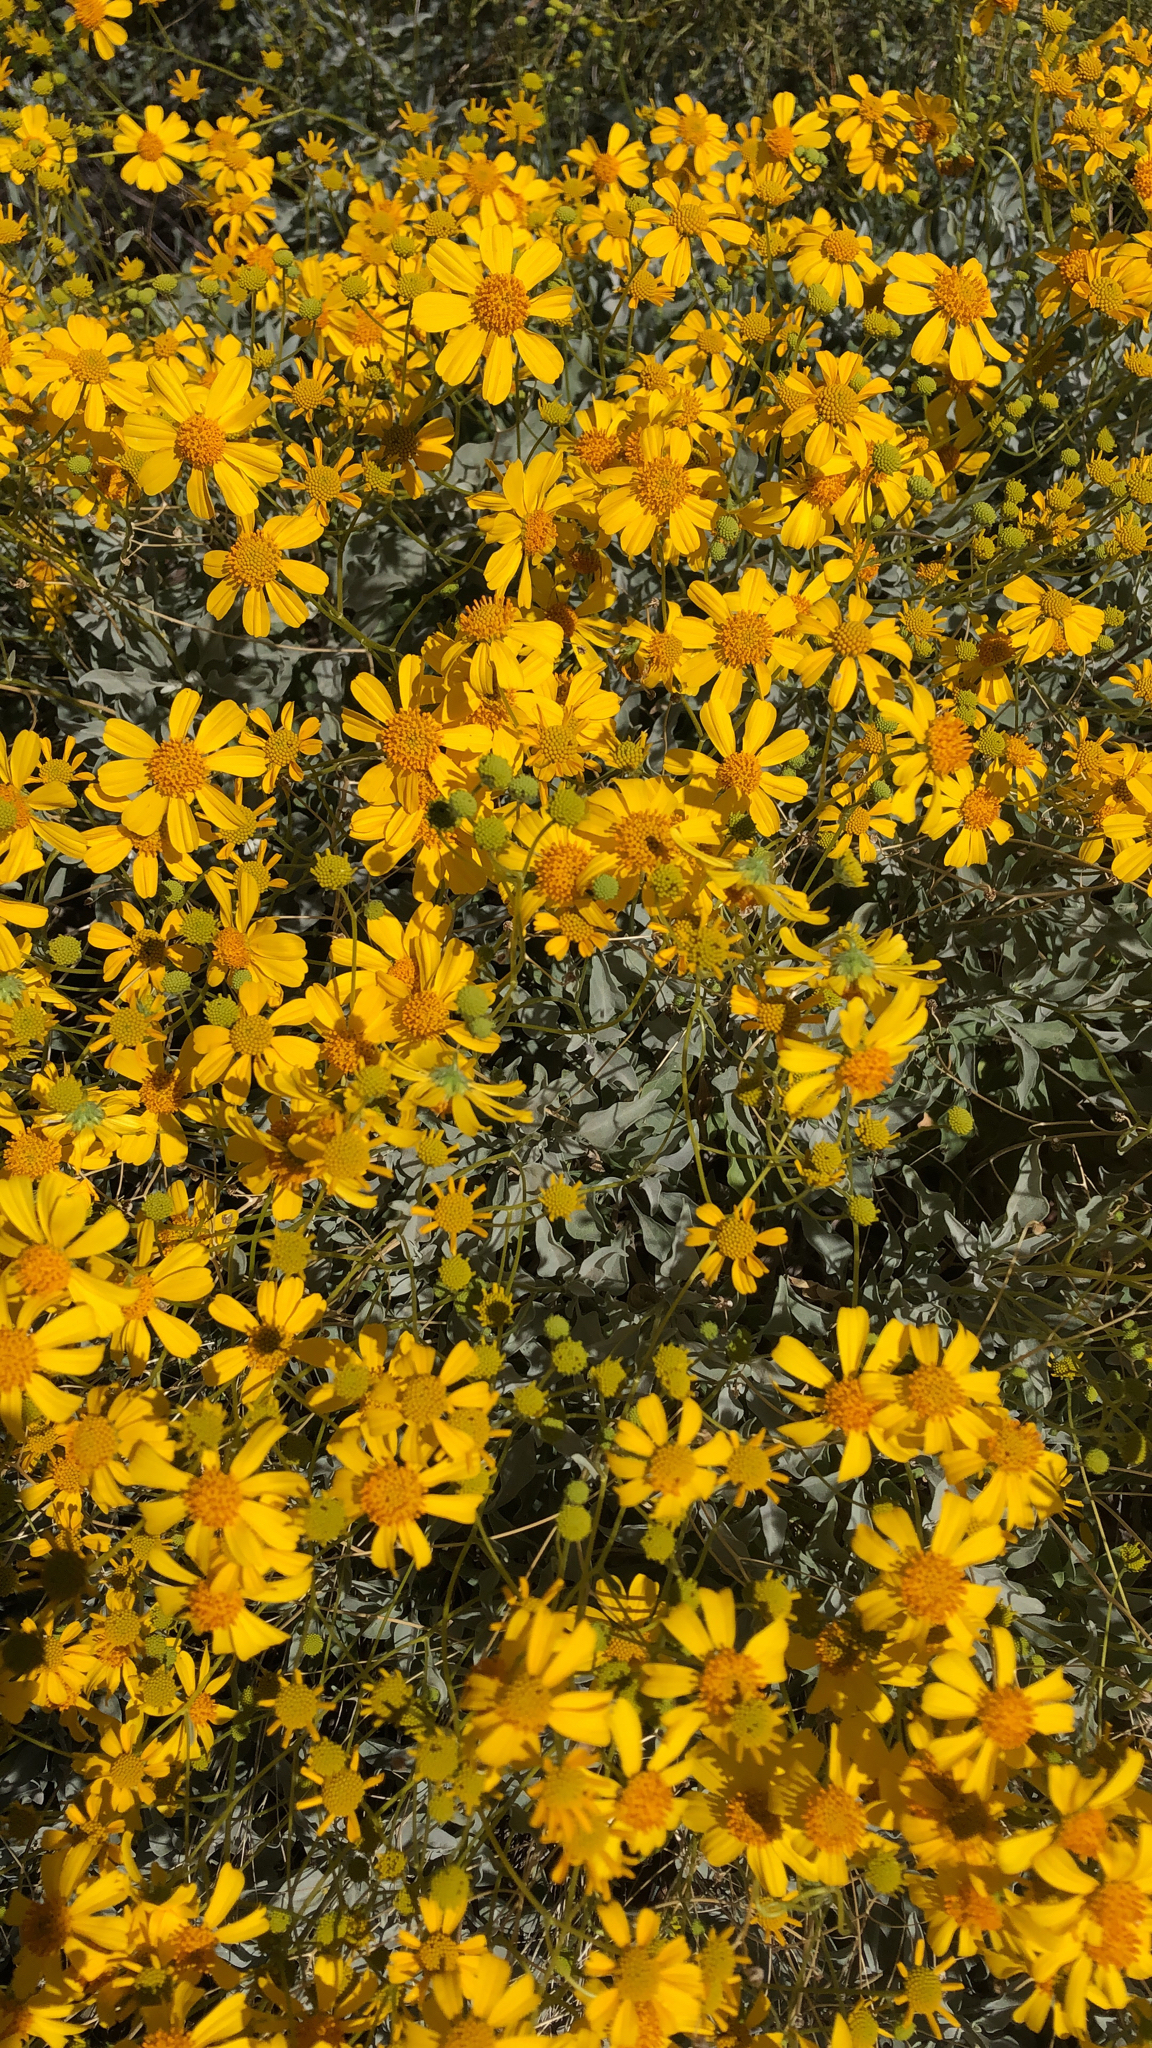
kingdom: Plantae
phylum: Tracheophyta
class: Magnoliopsida
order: Asterales
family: Asteraceae
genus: Encelia
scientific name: Encelia farinosa
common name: Brittlebush
